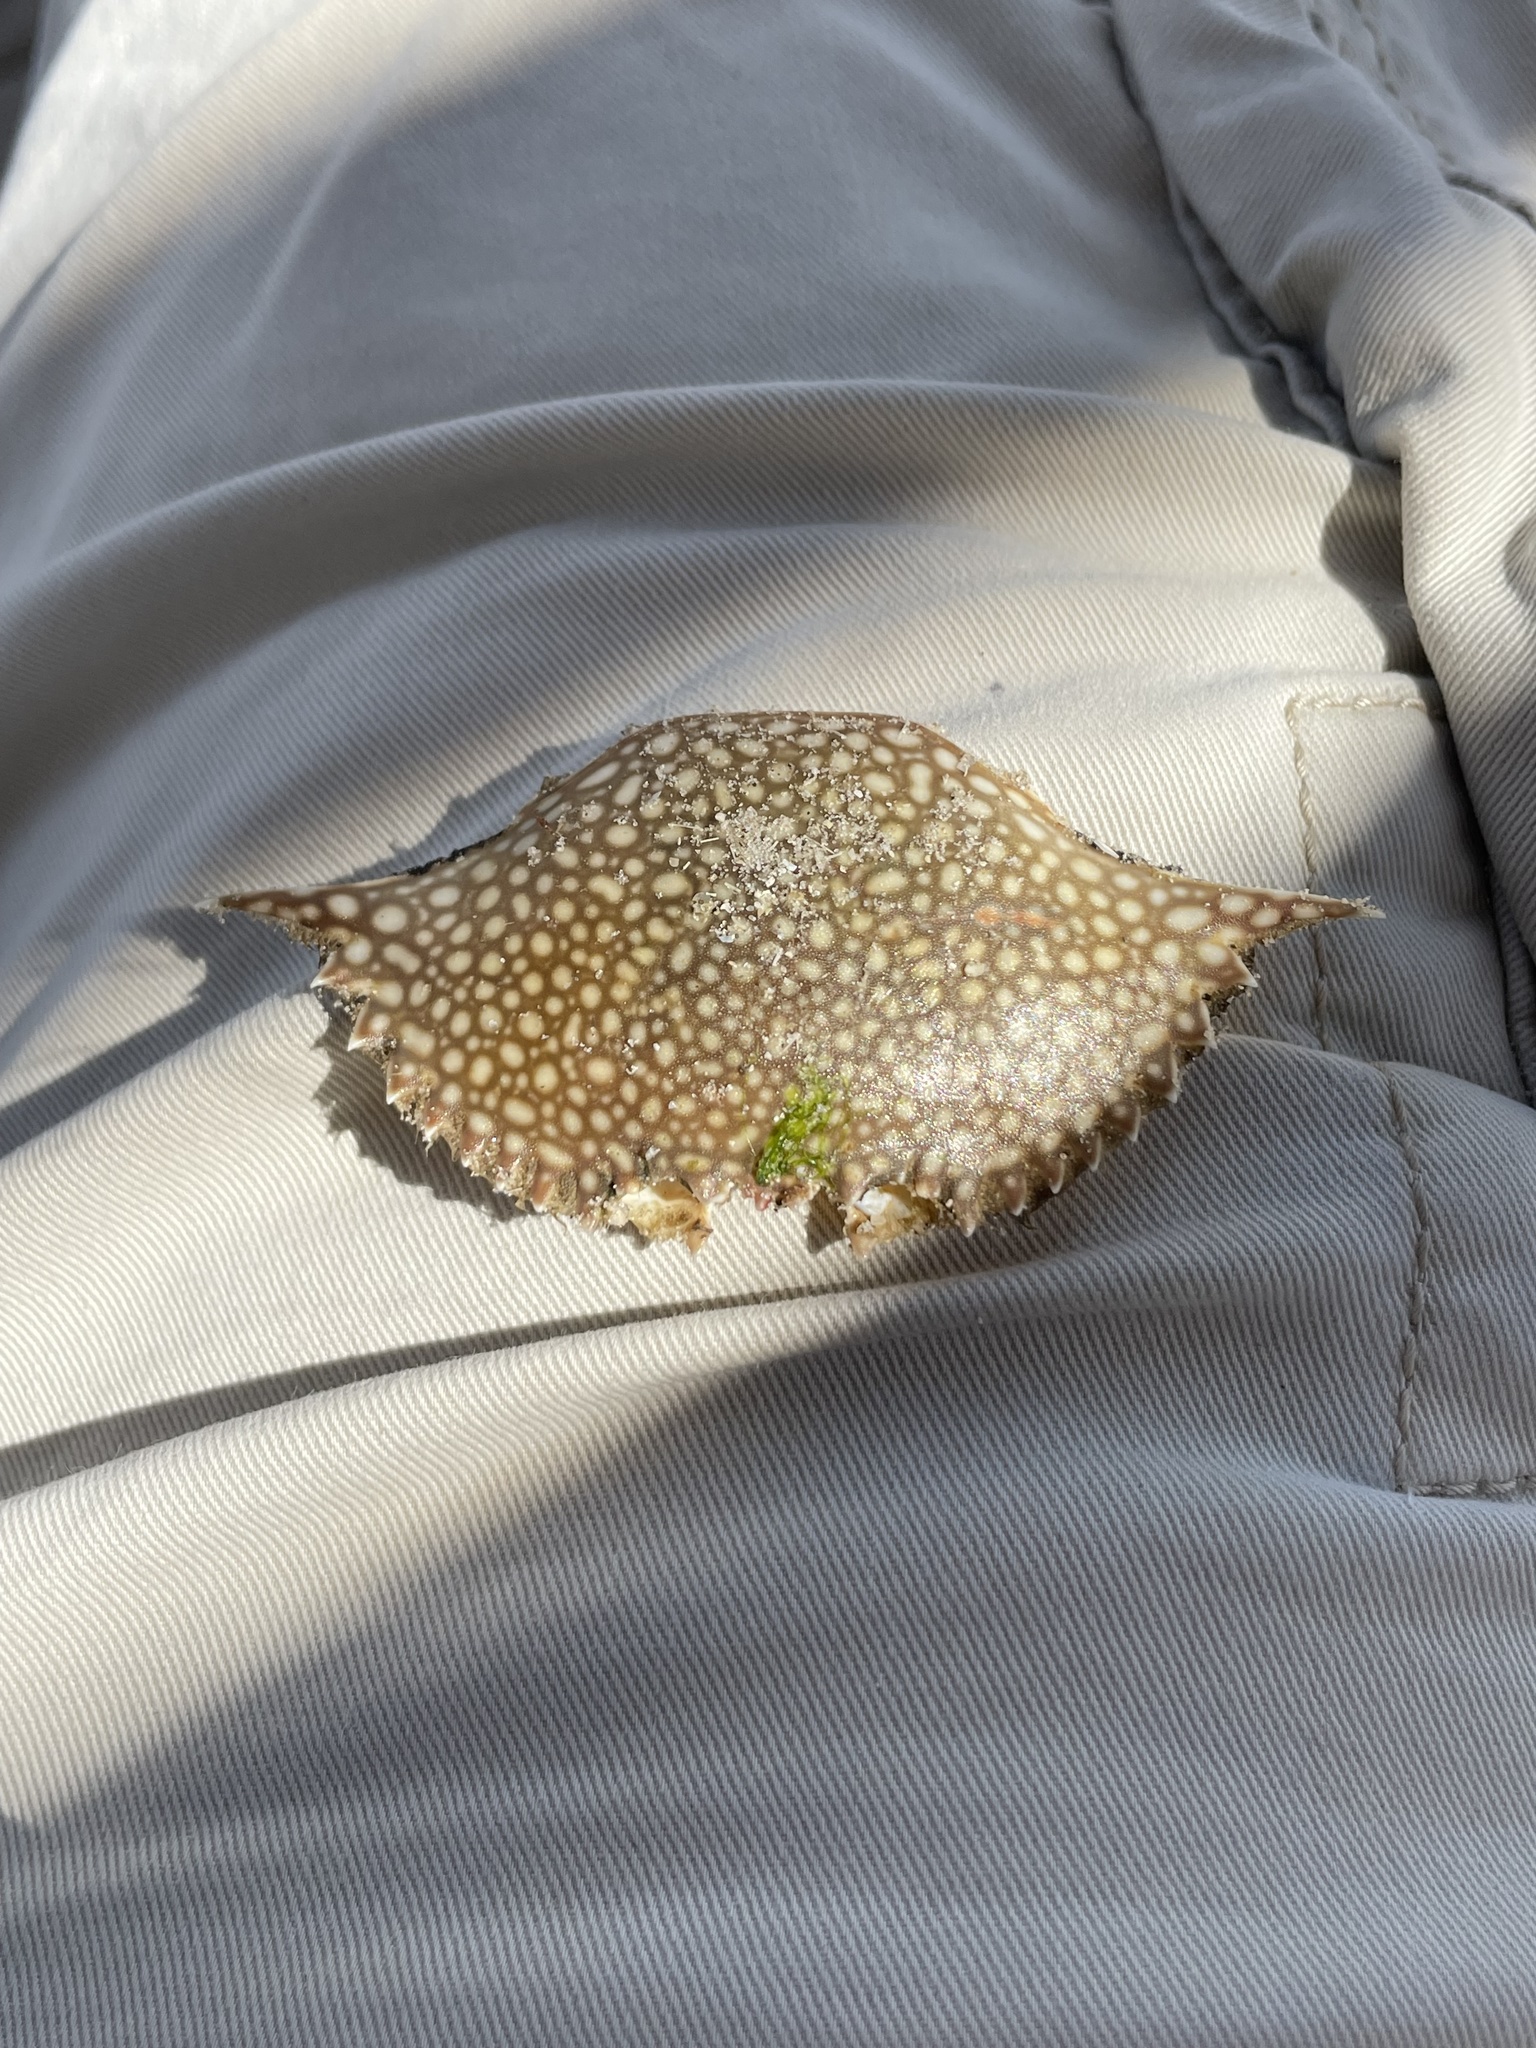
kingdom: Animalia
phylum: Arthropoda
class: Malacostraca
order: Decapoda
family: Portunidae
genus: Arenaeus
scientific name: Arenaeus cribrarius
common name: Speckled crab
